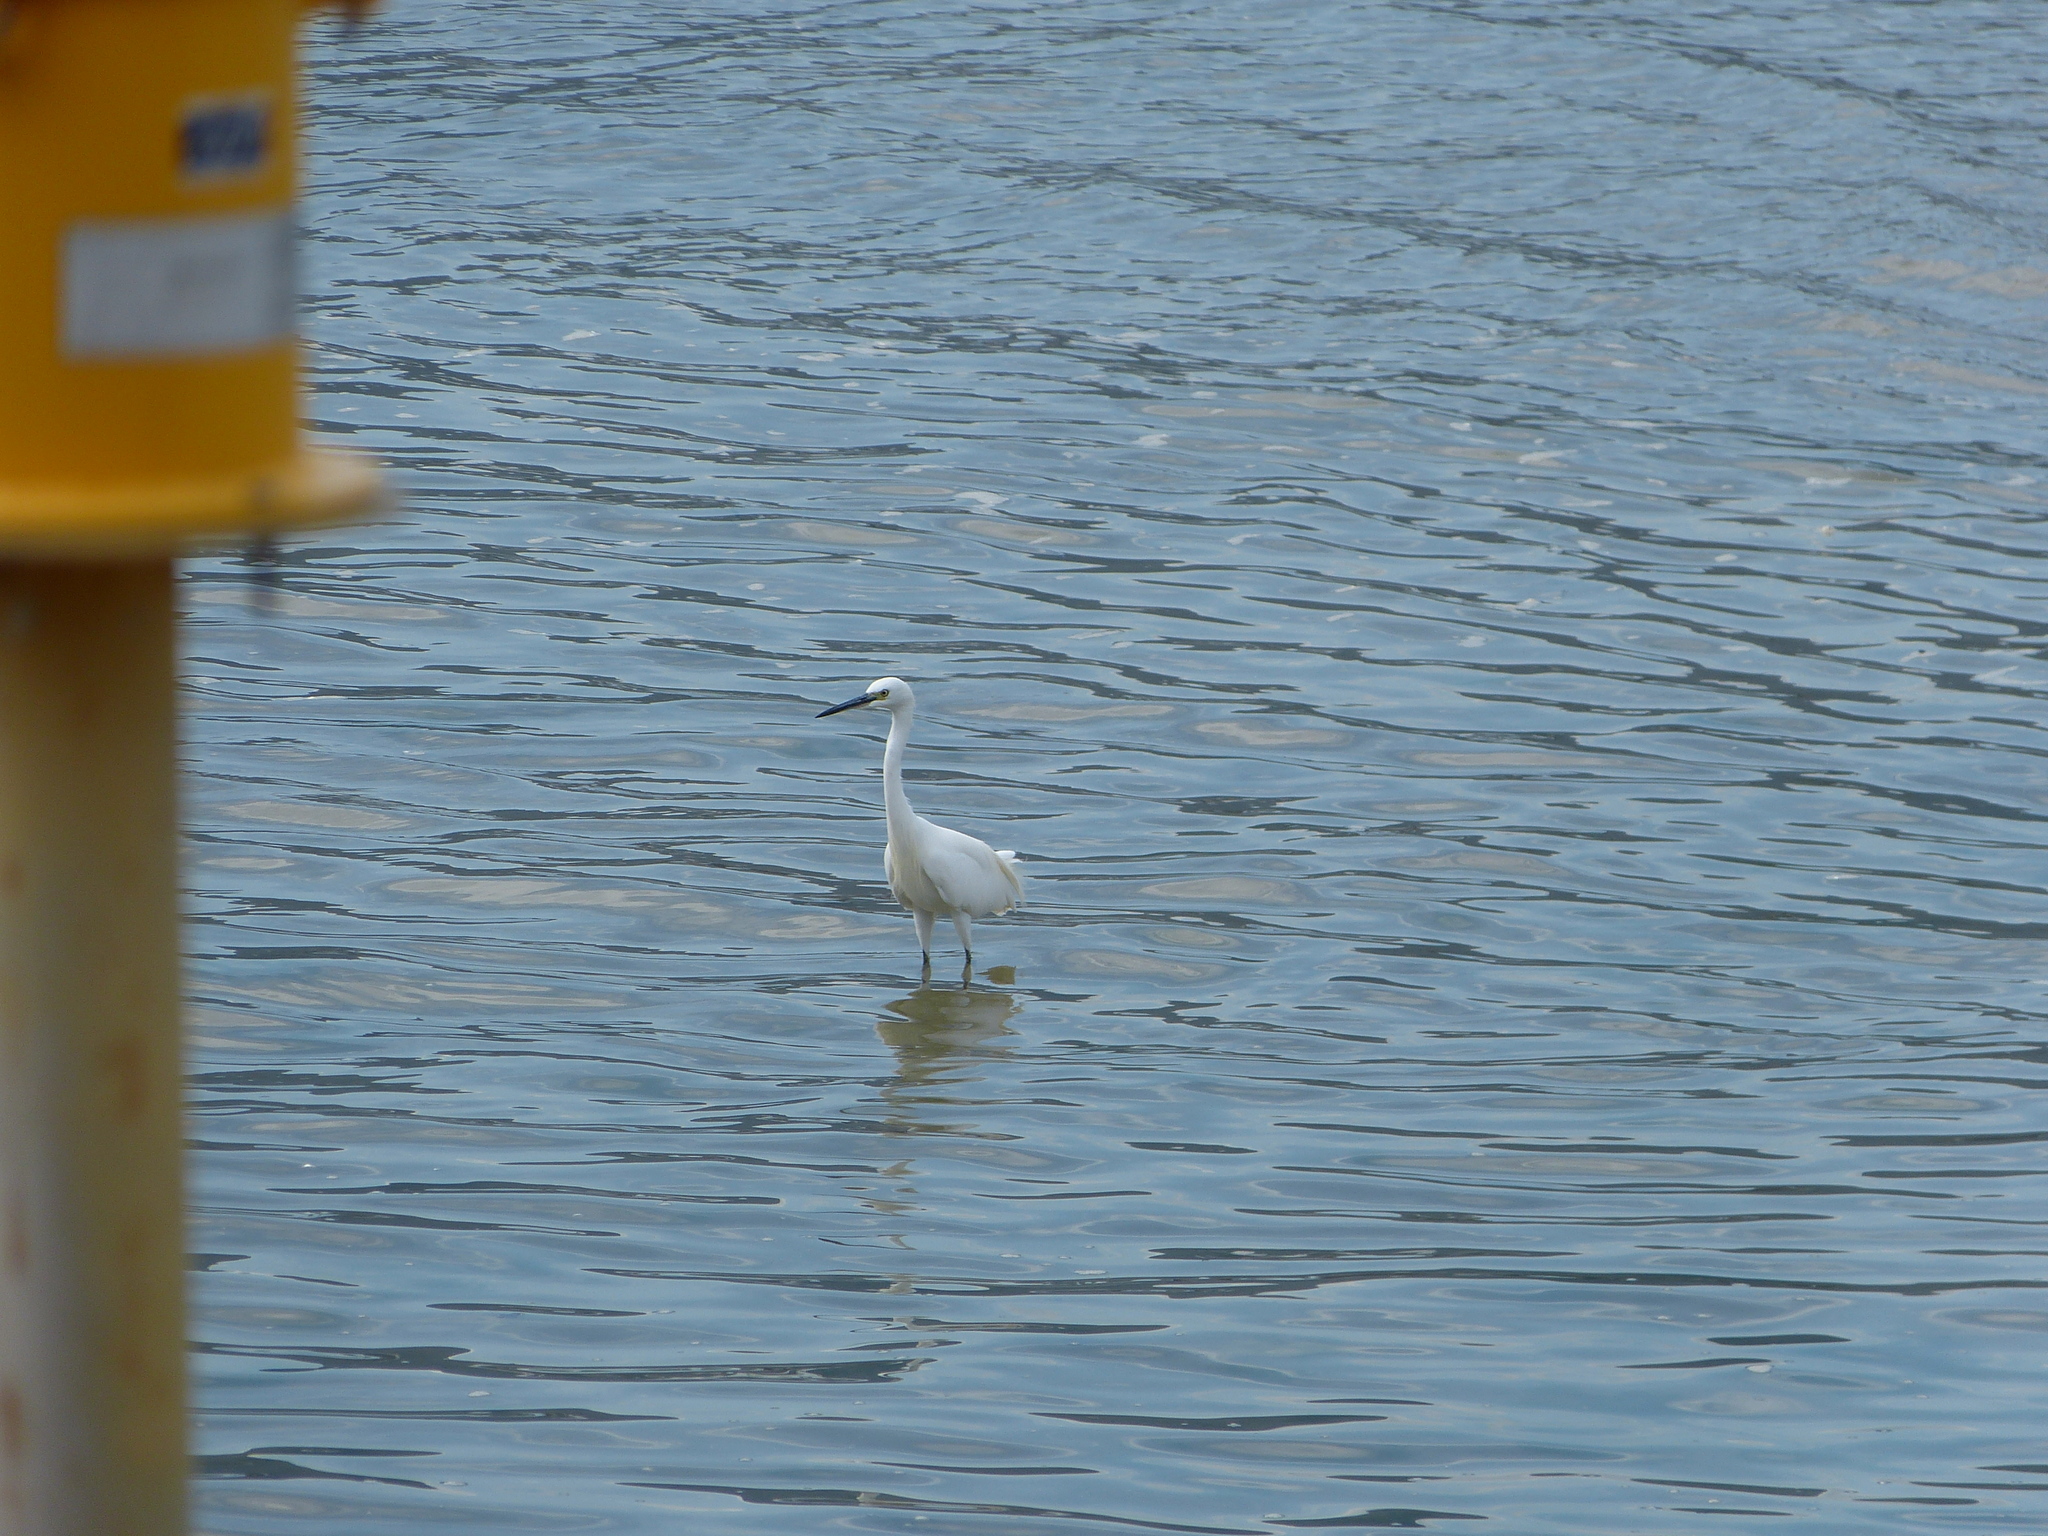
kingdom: Animalia
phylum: Chordata
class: Aves
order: Pelecaniformes
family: Ardeidae
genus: Egretta
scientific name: Egretta garzetta
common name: Little egret
